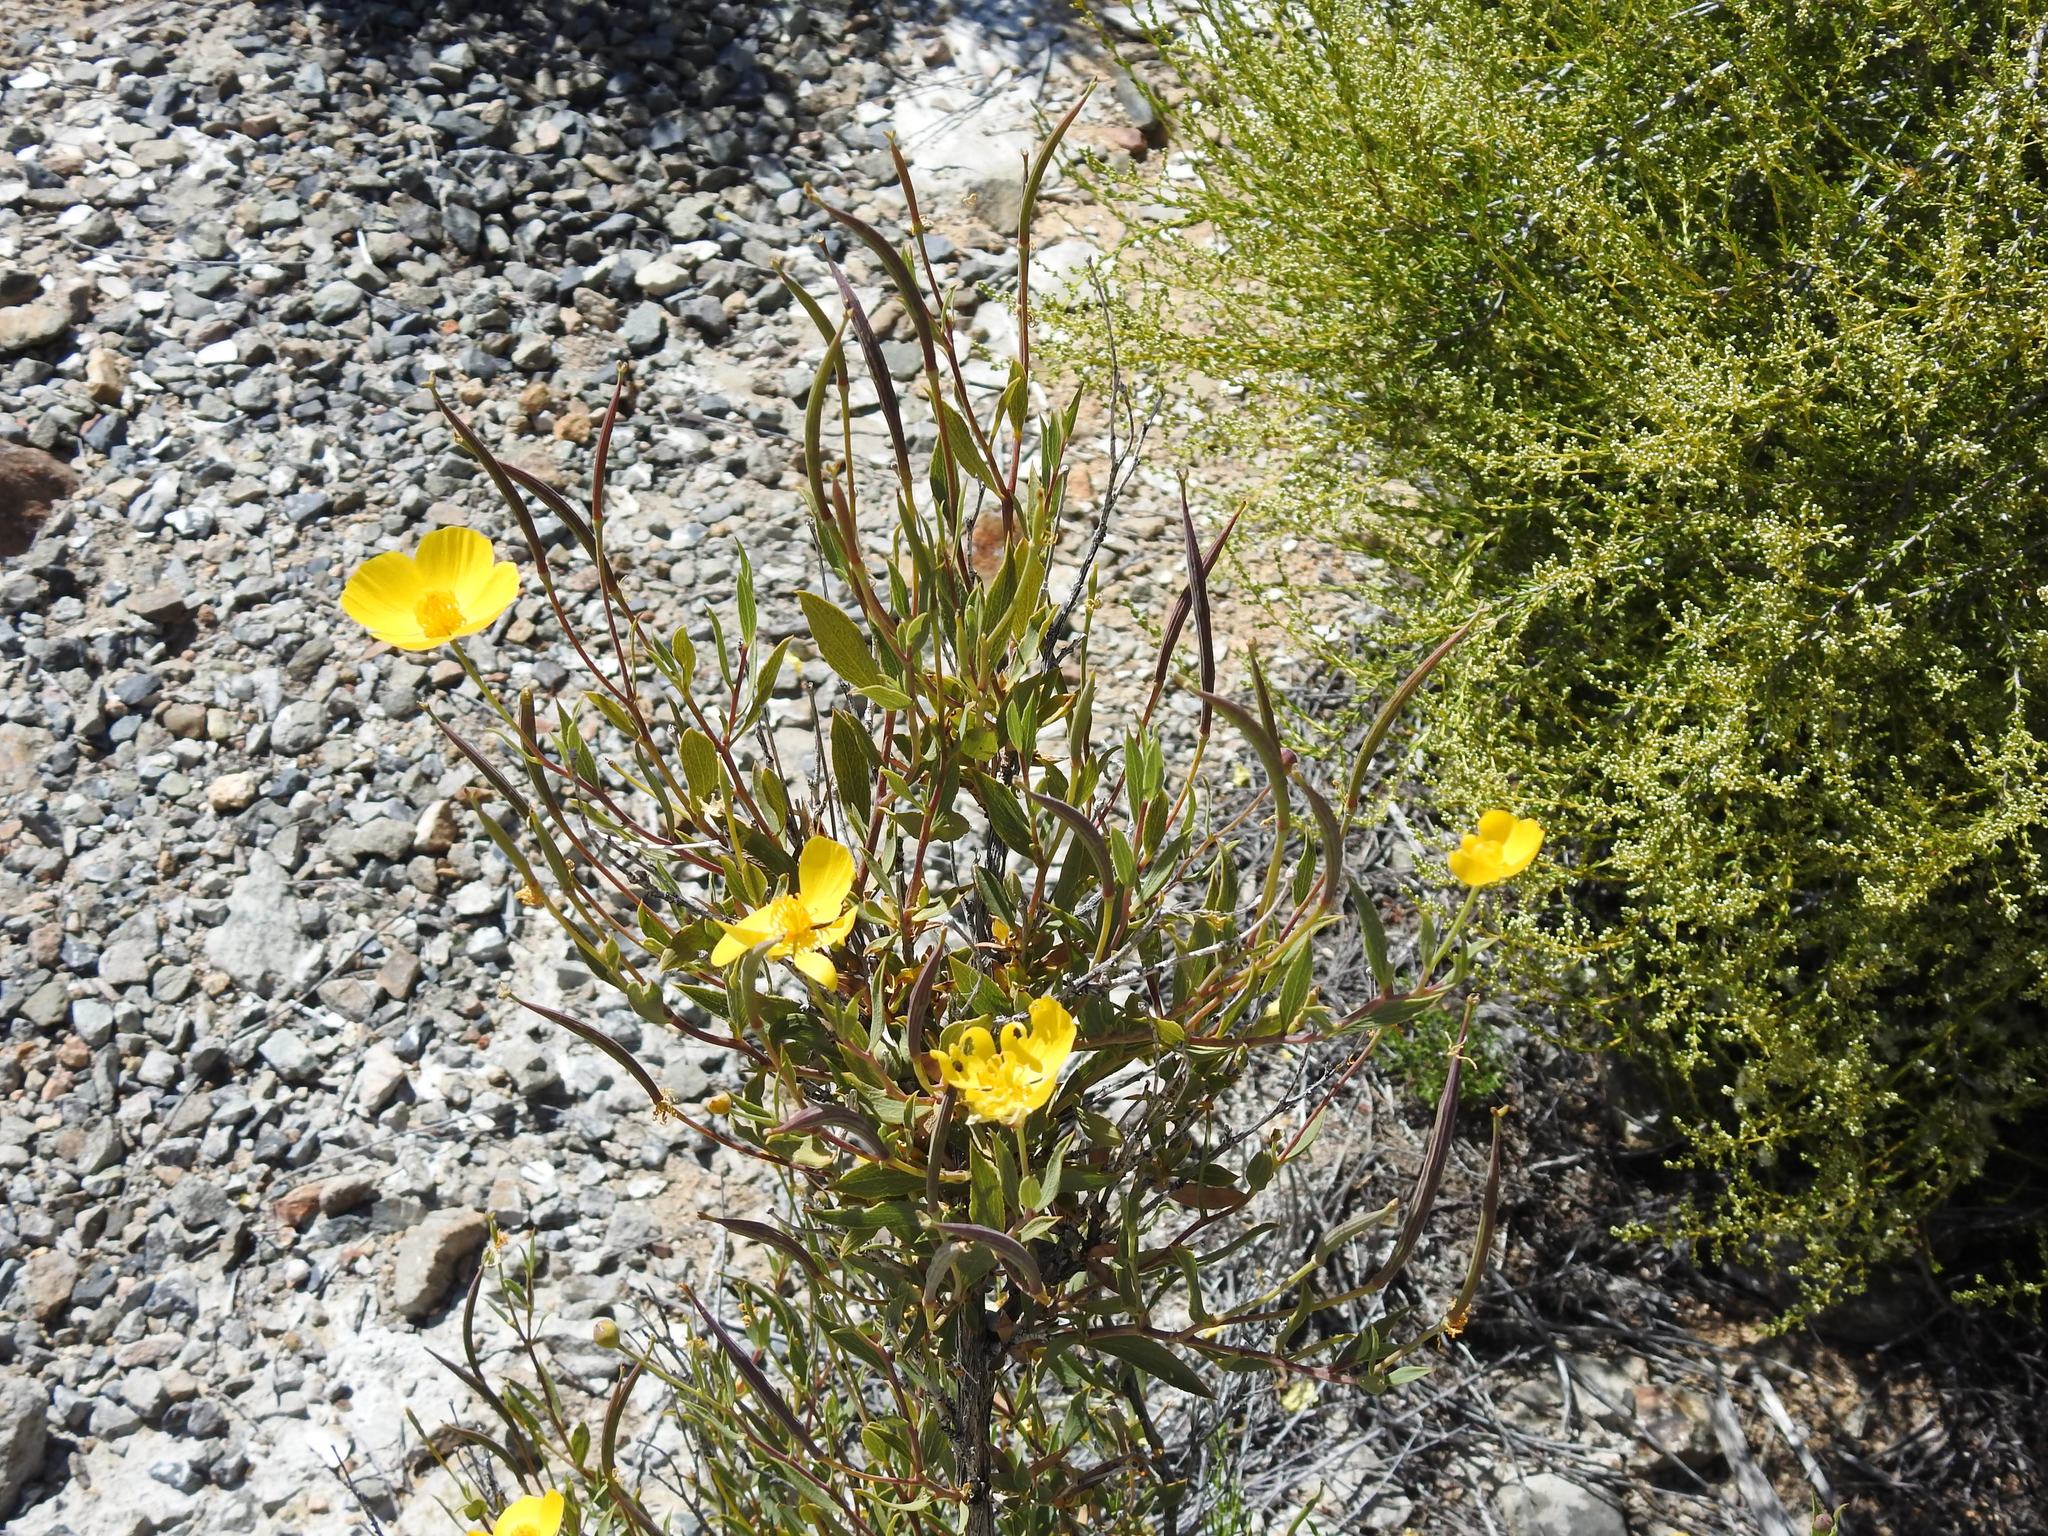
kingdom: Plantae
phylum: Tracheophyta
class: Magnoliopsida
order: Ranunculales
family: Papaveraceae
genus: Dendromecon
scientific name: Dendromecon rigida
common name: Tree poppy
